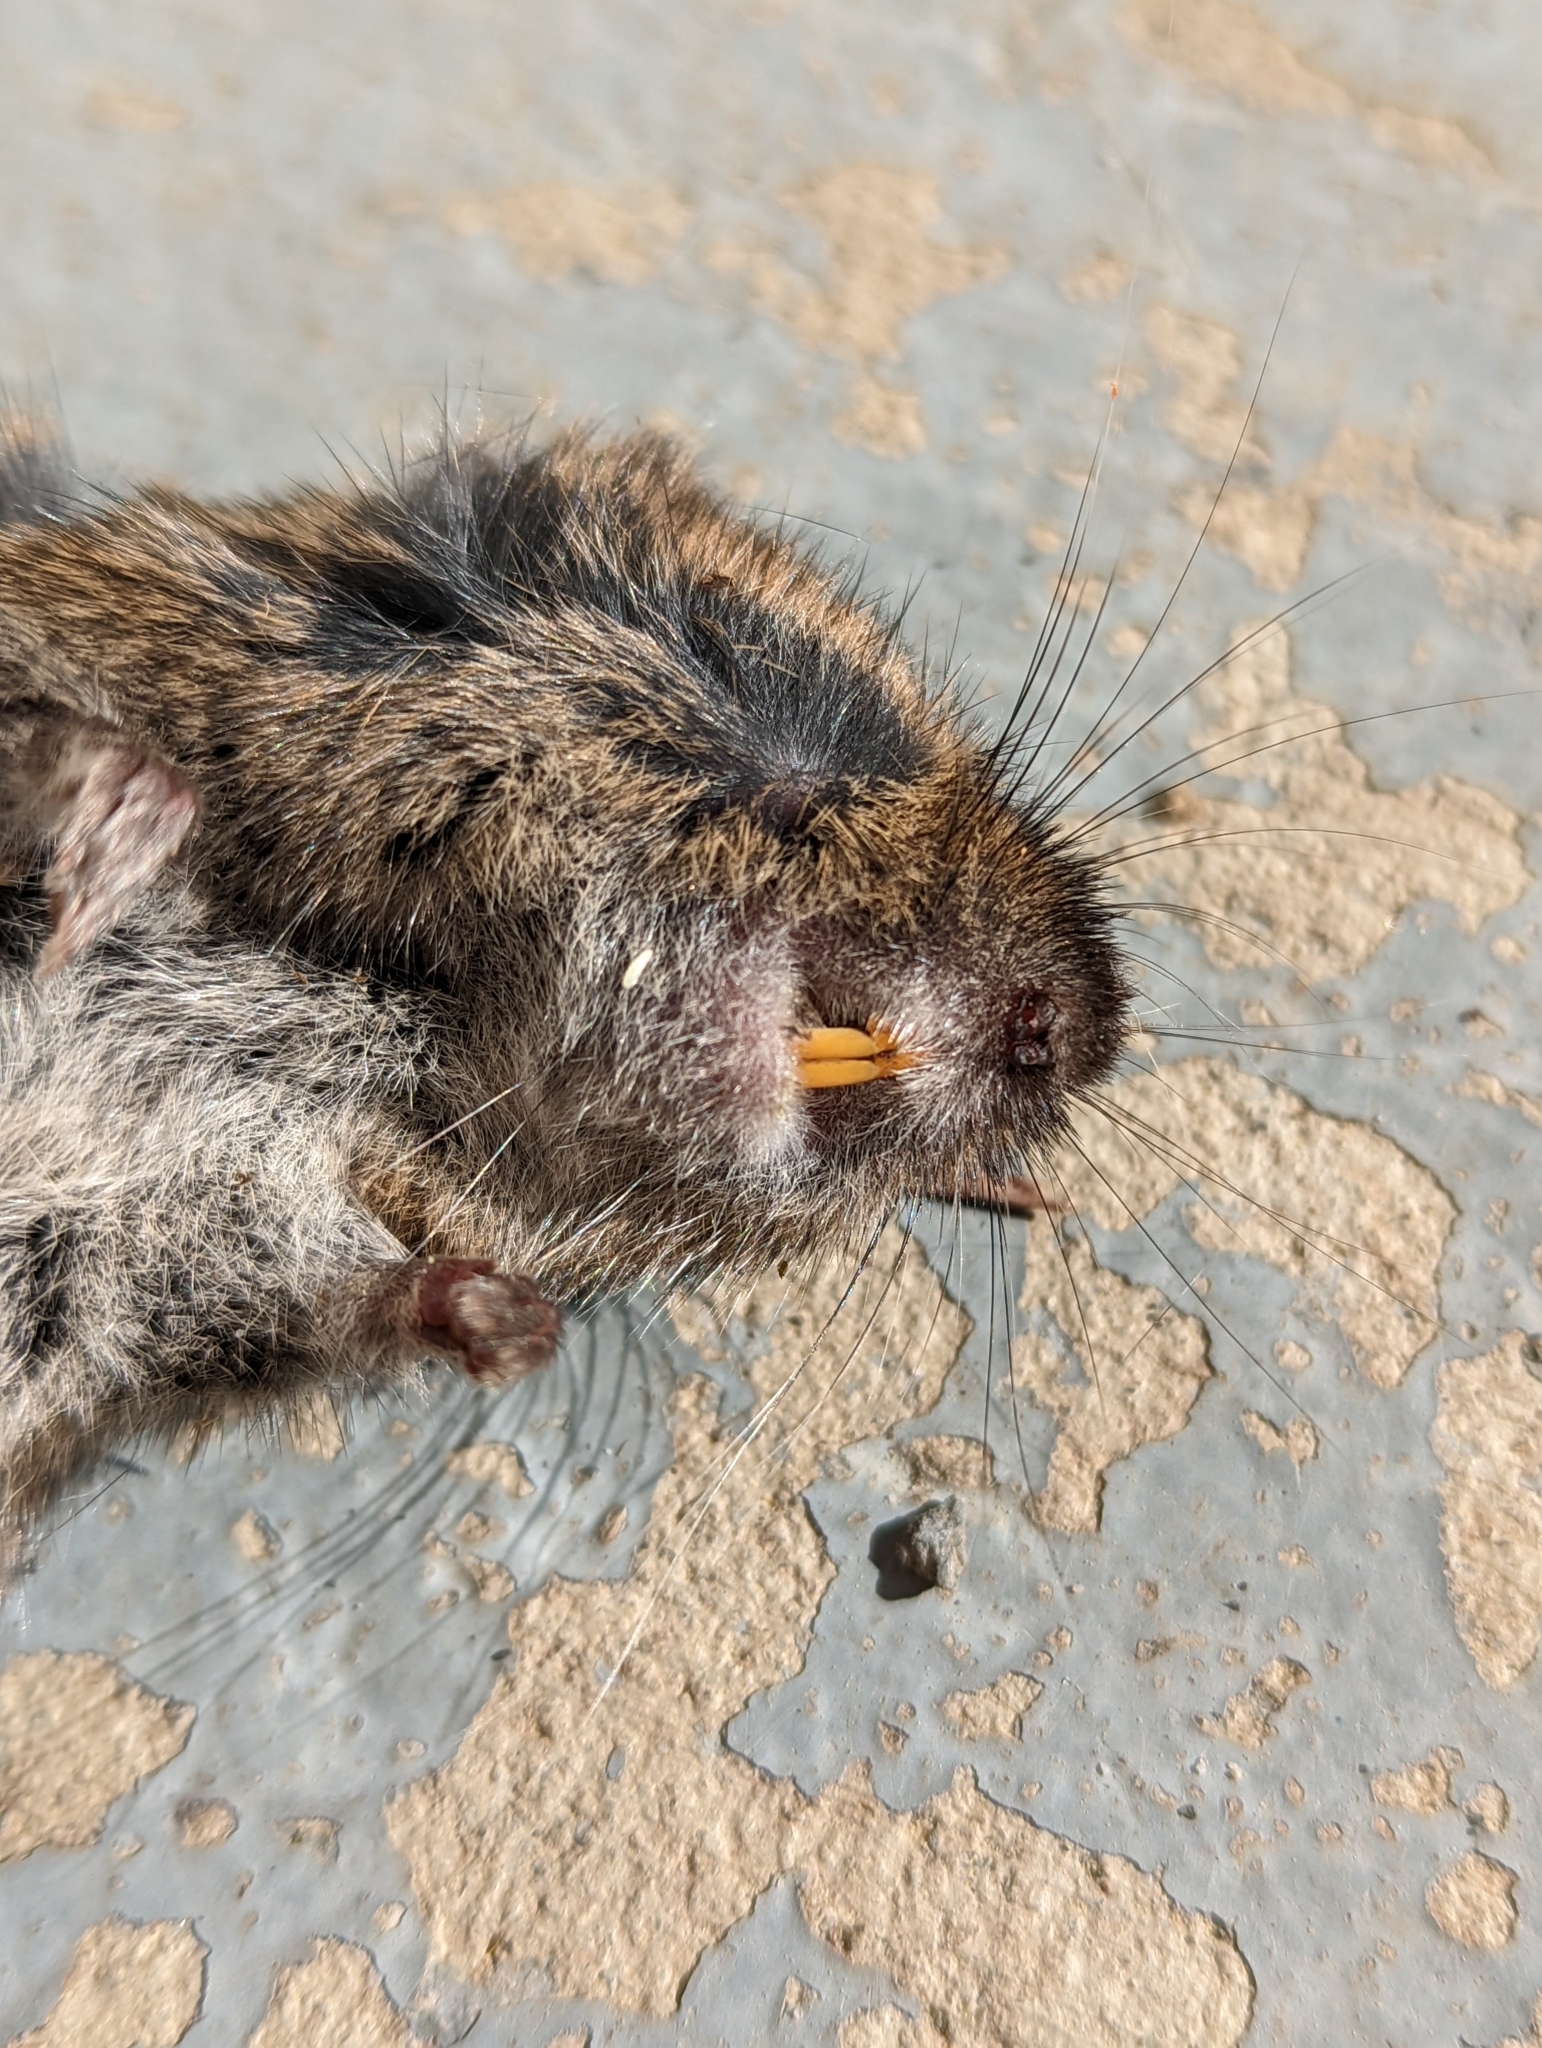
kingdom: Animalia
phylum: Chordata
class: Mammalia
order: Rodentia
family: Cricetidae
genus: Microtus
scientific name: Microtus townsendii
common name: Townsend's vole
